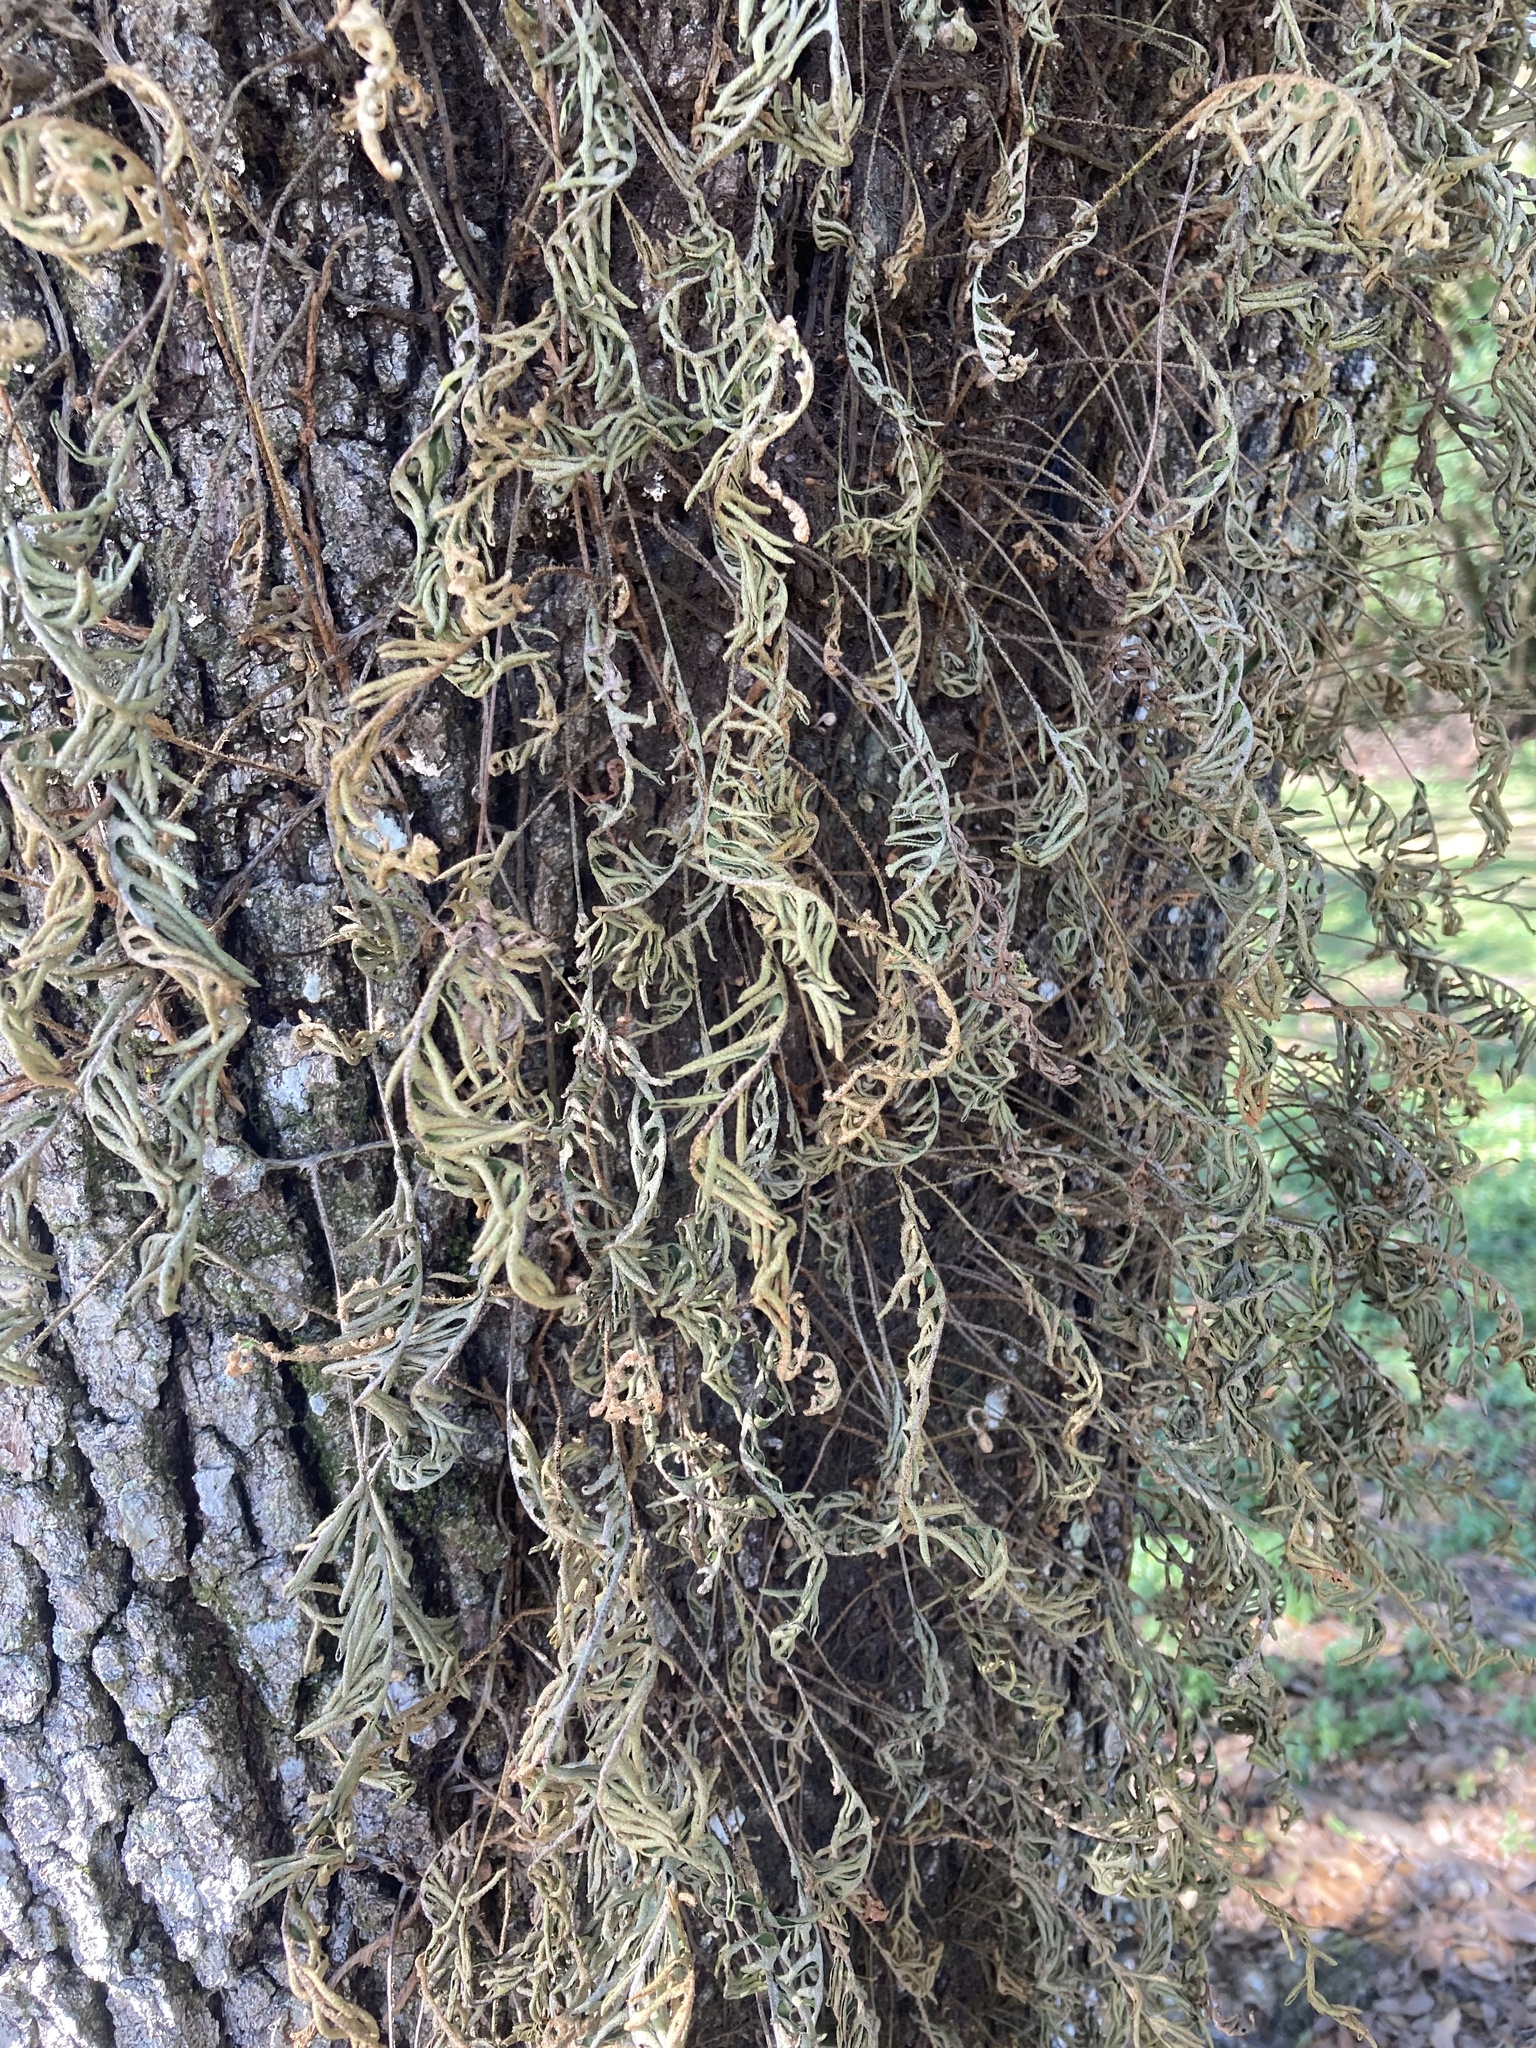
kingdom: Plantae
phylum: Tracheophyta
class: Polypodiopsida
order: Polypodiales
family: Polypodiaceae
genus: Pleopeltis
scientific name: Pleopeltis michauxiana
